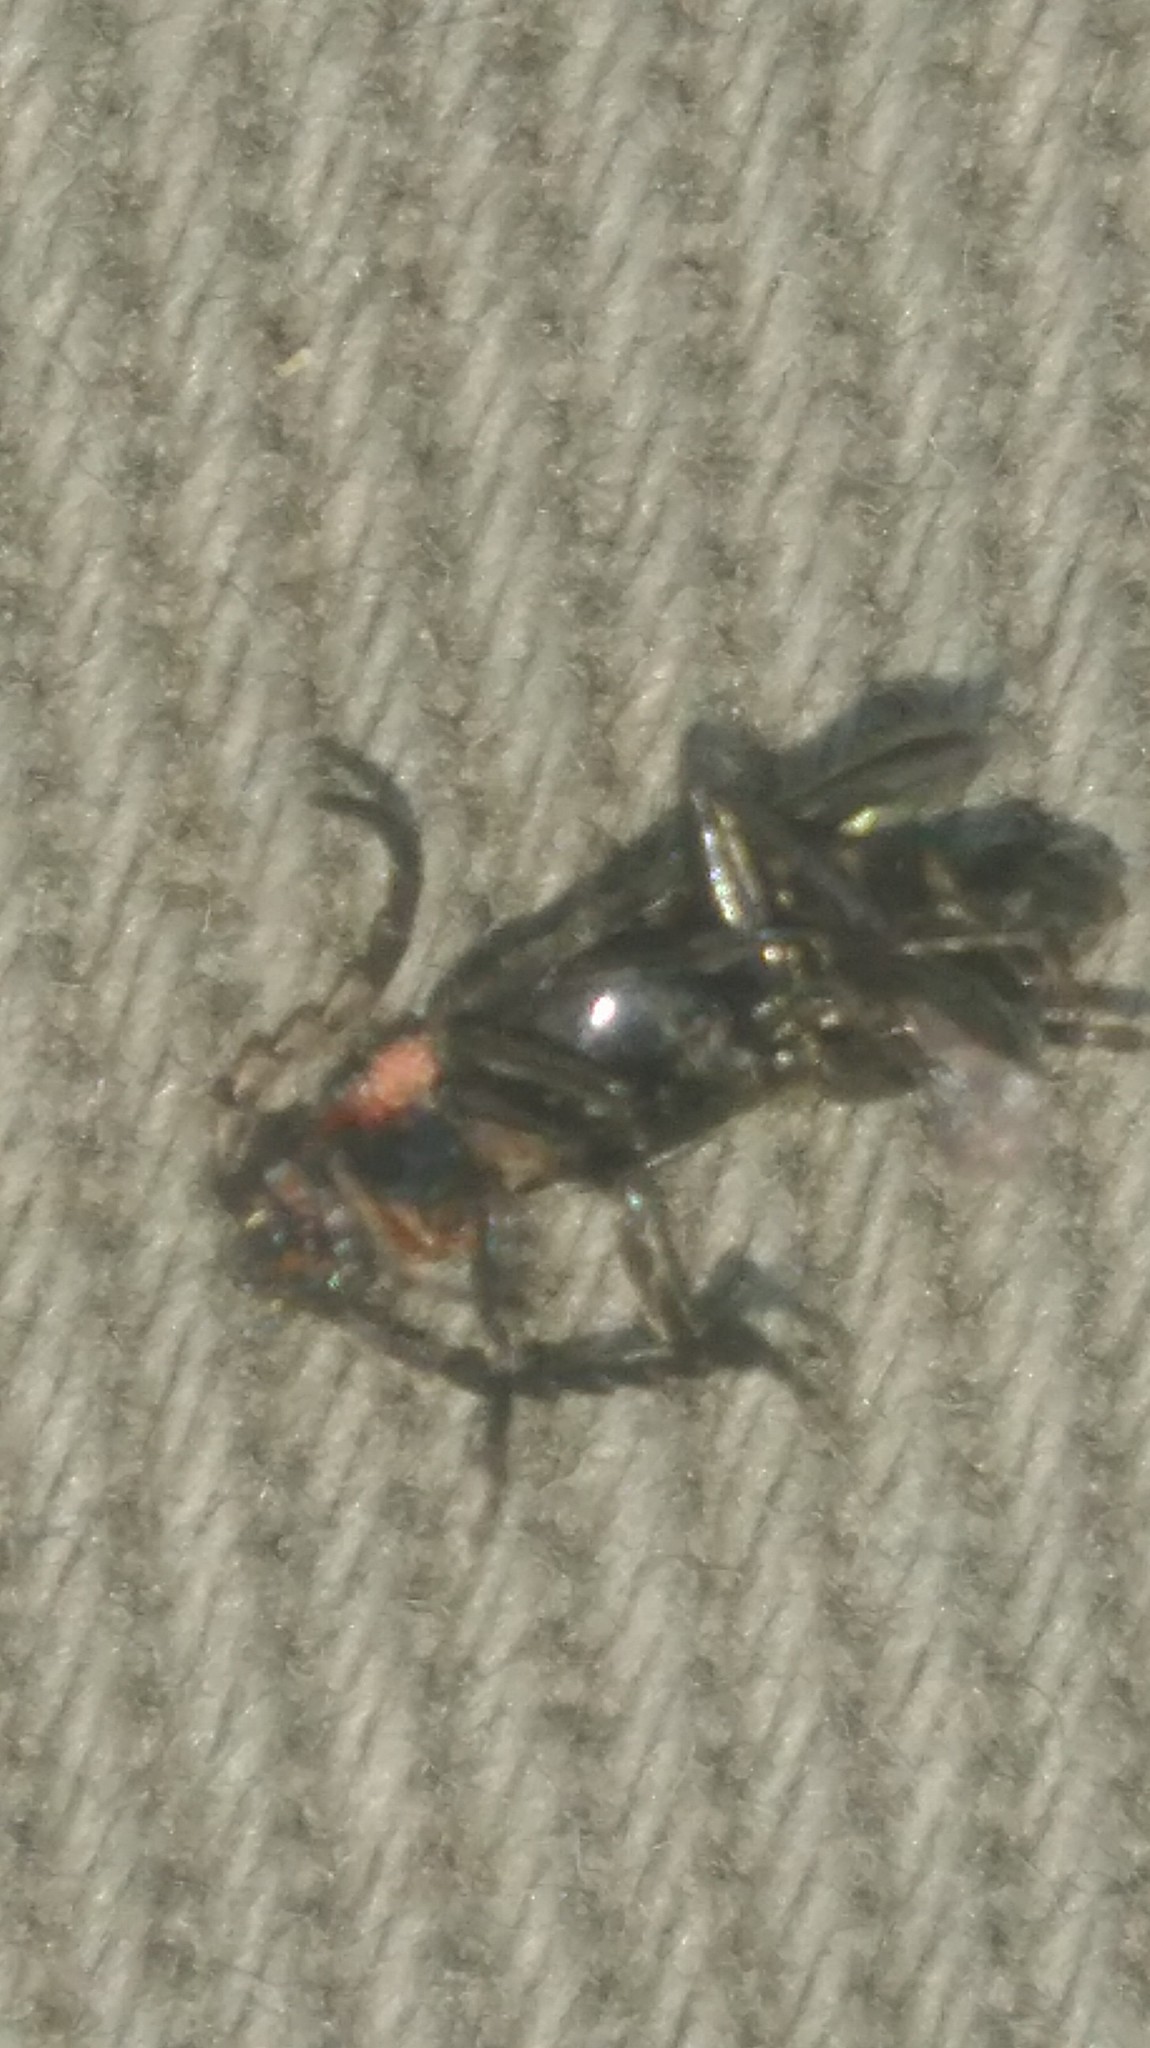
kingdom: Animalia
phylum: Arthropoda
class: Insecta
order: Coleoptera
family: Cantharidae
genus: Polemius
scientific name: Polemius
